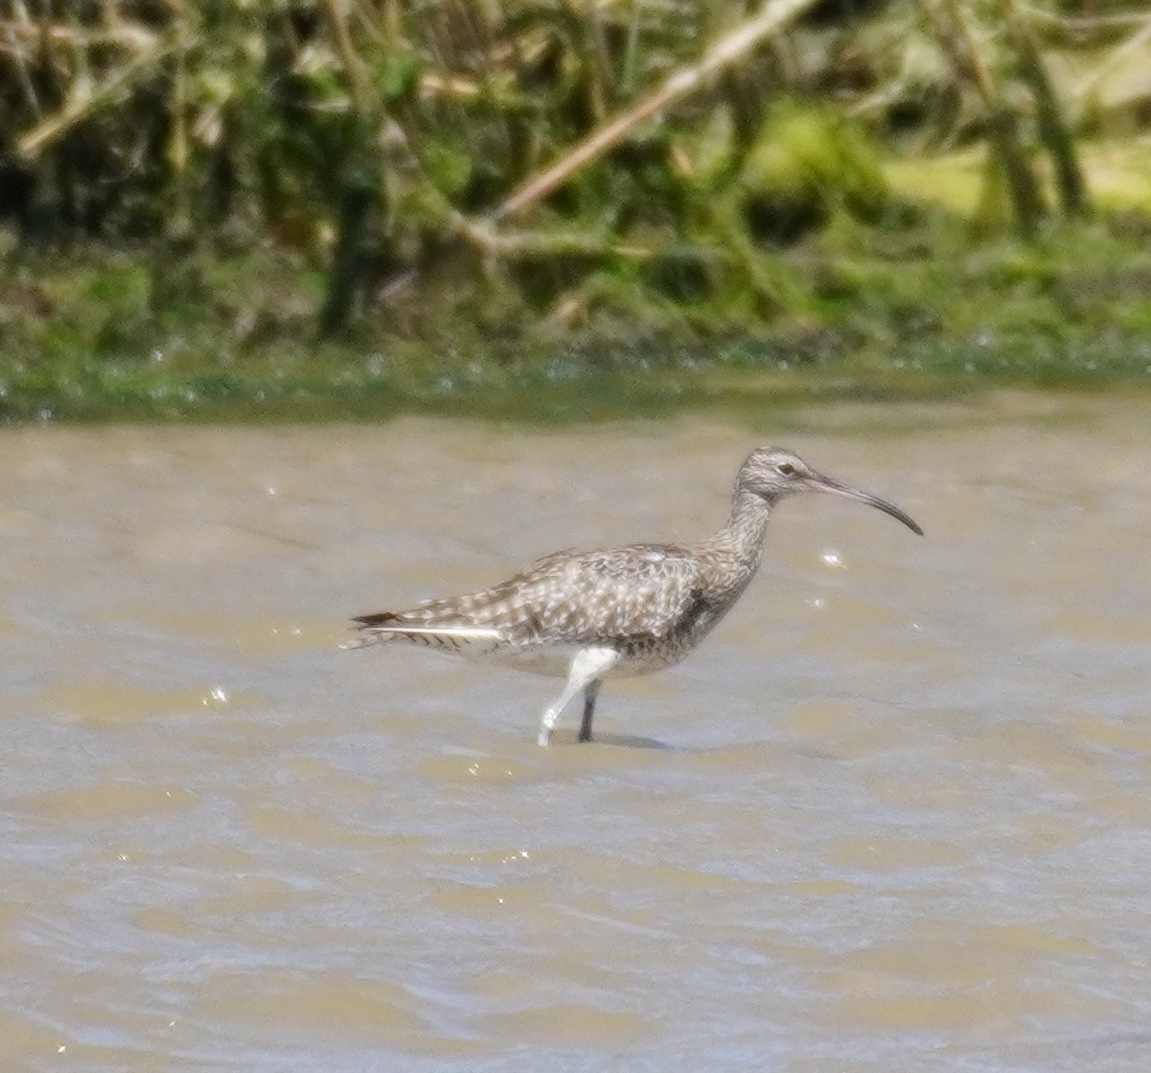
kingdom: Animalia
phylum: Chordata
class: Aves
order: Charadriiformes
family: Scolopacidae
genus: Numenius
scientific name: Numenius phaeopus
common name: Whimbrel
